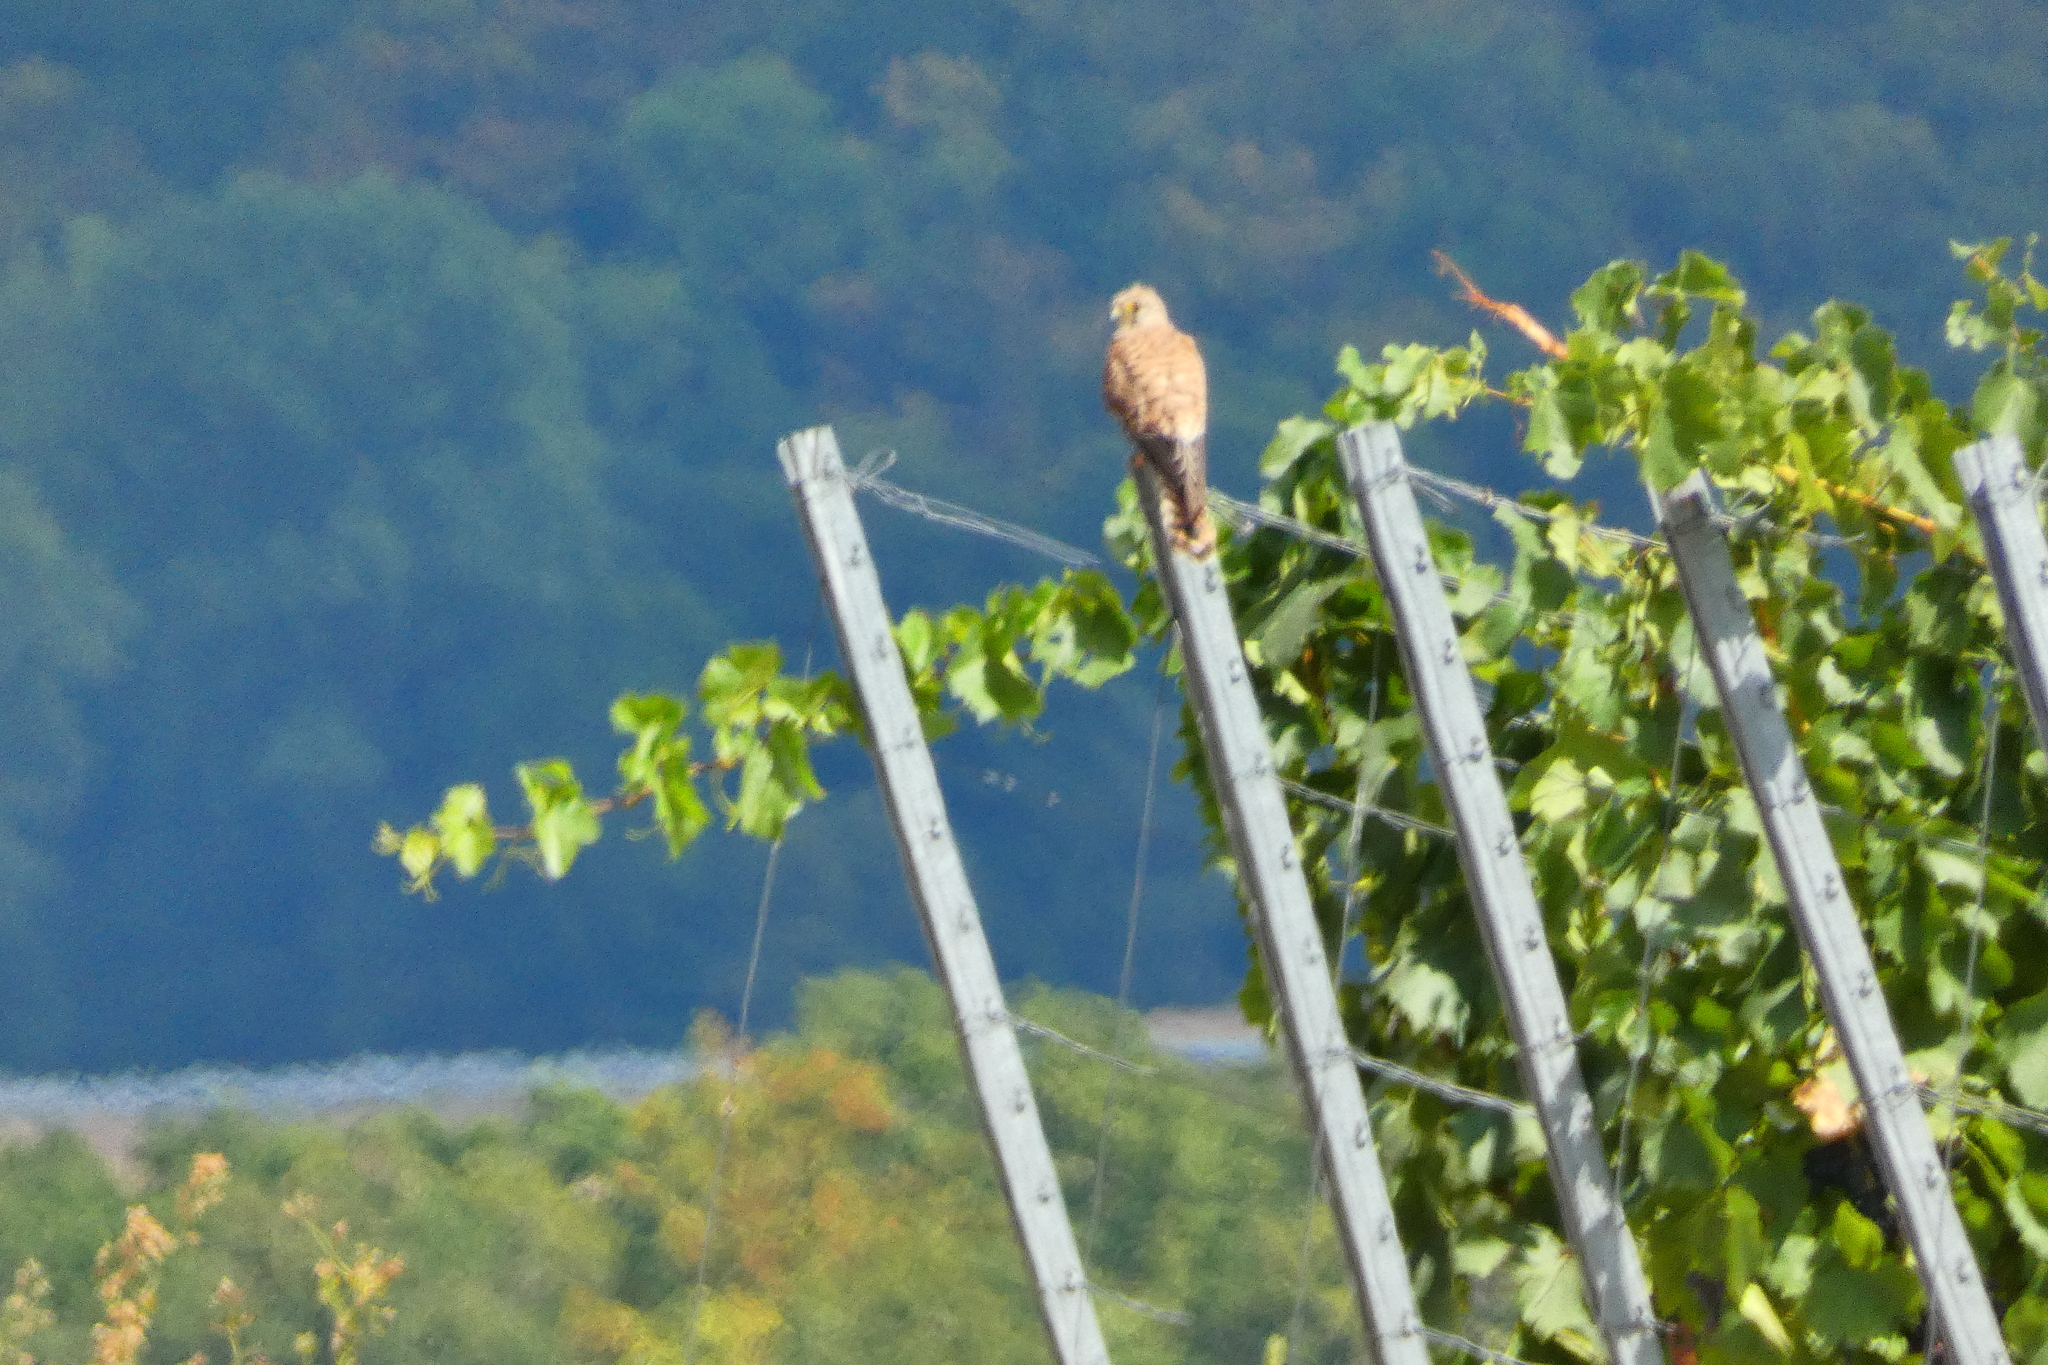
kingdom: Animalia
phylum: Chordata
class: Aves
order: Falconiformes
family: Falconidae
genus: Falco
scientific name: Falco tinnunculus
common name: Common kestrel
